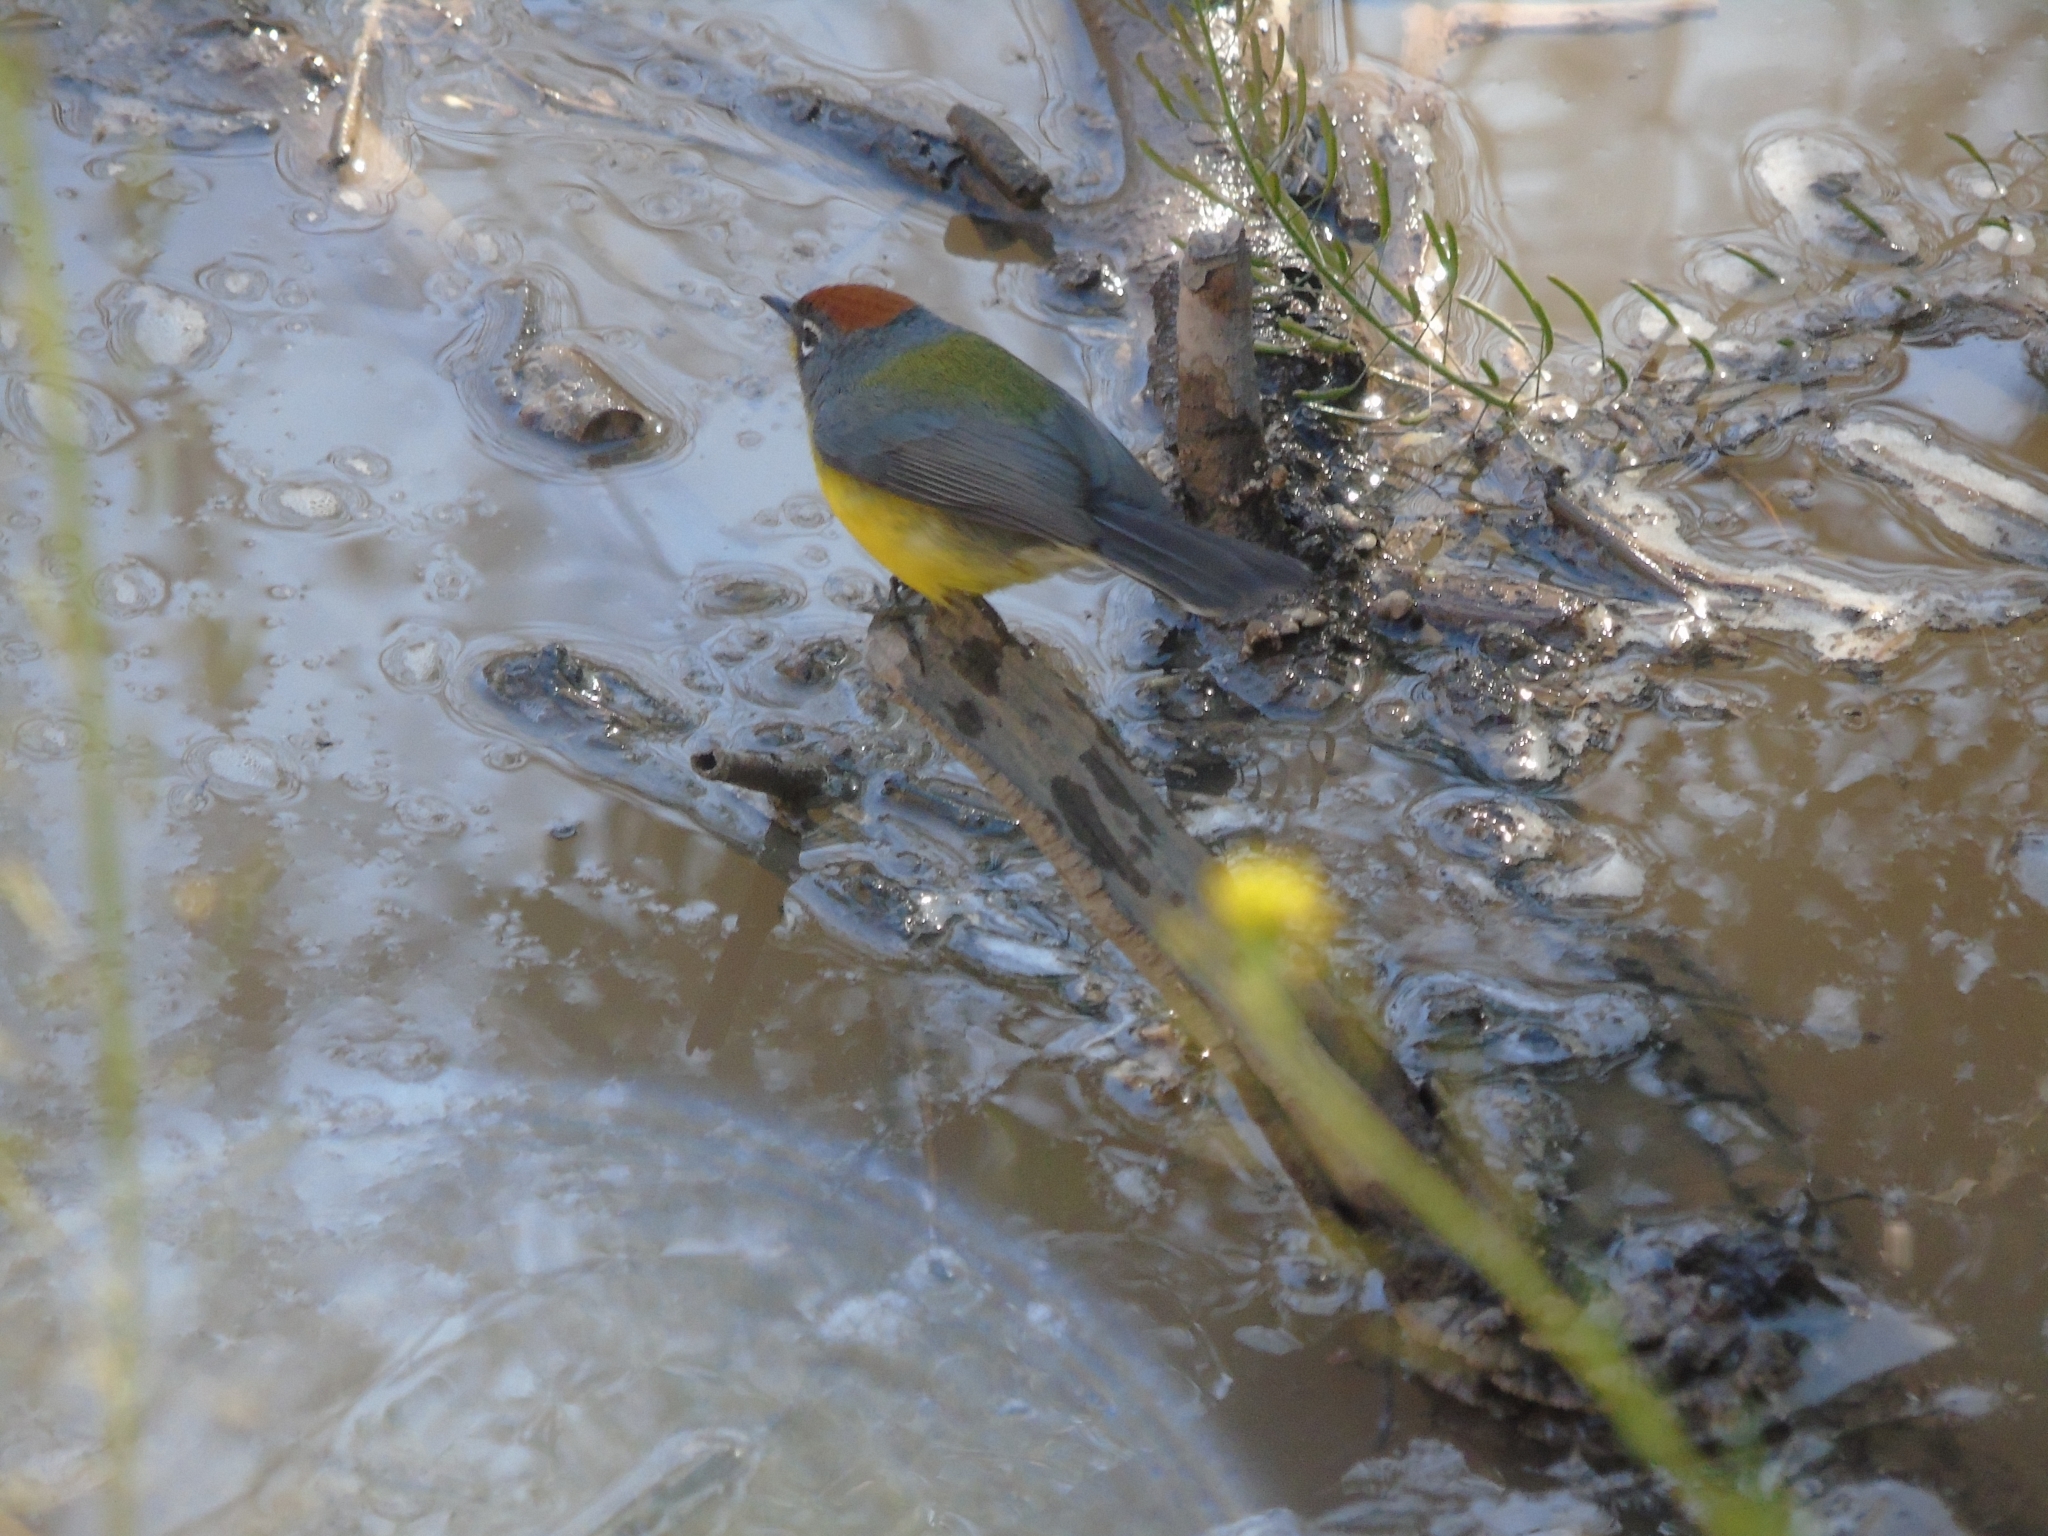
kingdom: Animalia
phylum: Chordata
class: Aves
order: Passeriformes
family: Parulidae
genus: Myioborus
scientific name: Myioborus brunniceps
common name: Brown-capped whitestart
